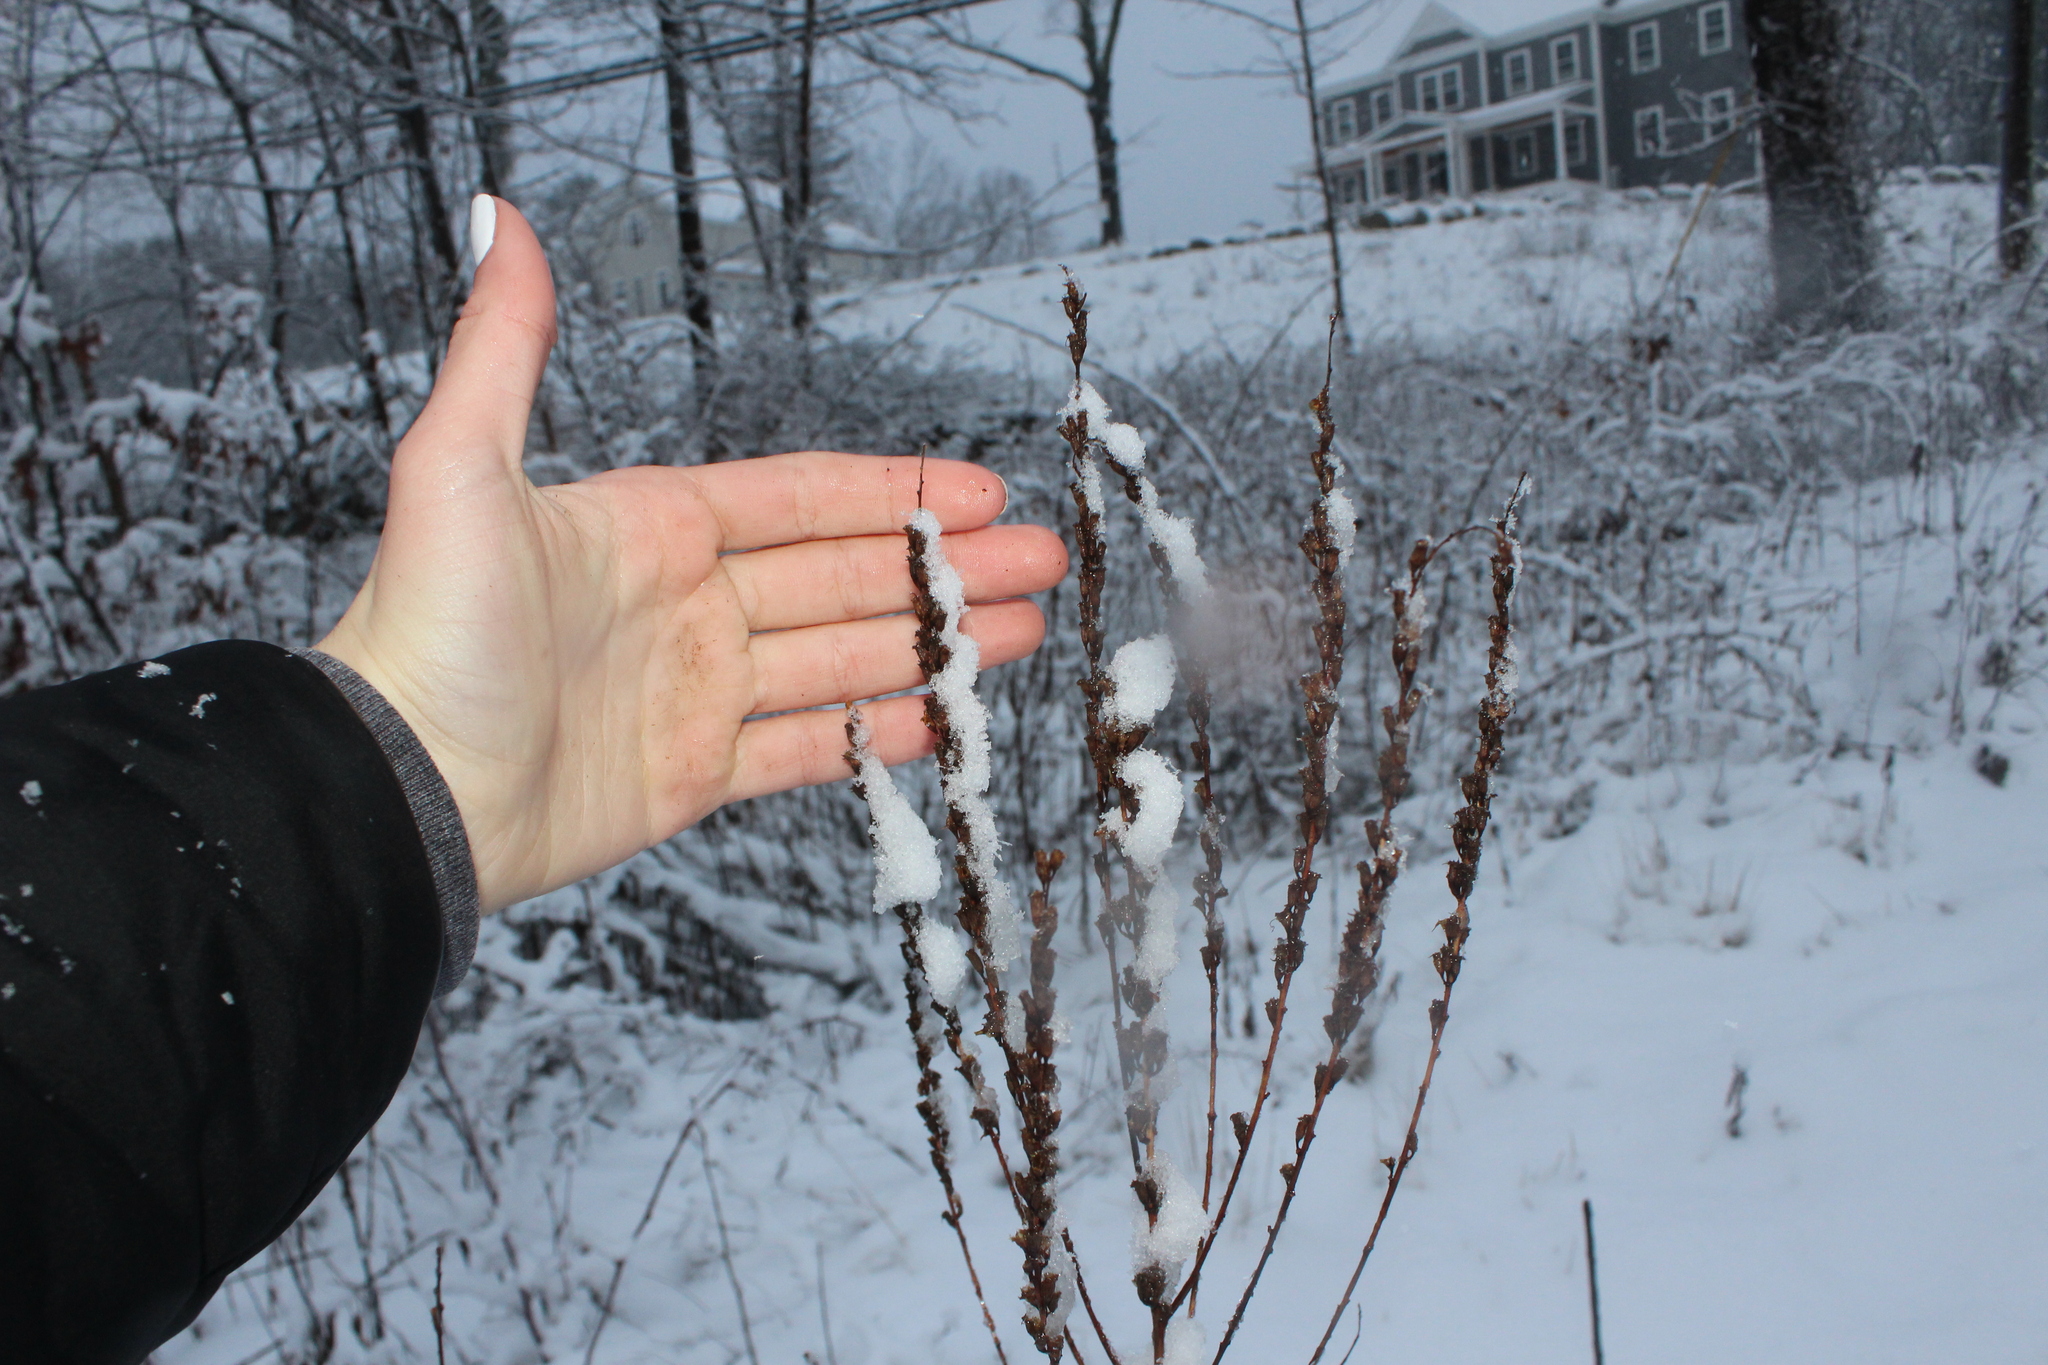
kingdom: Plantae
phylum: Tracheophyta
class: Magnoliopsida
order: Myrtales
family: Lythraceae
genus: Lythrum
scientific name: Lythrum salicaria
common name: Purple loosestrife
